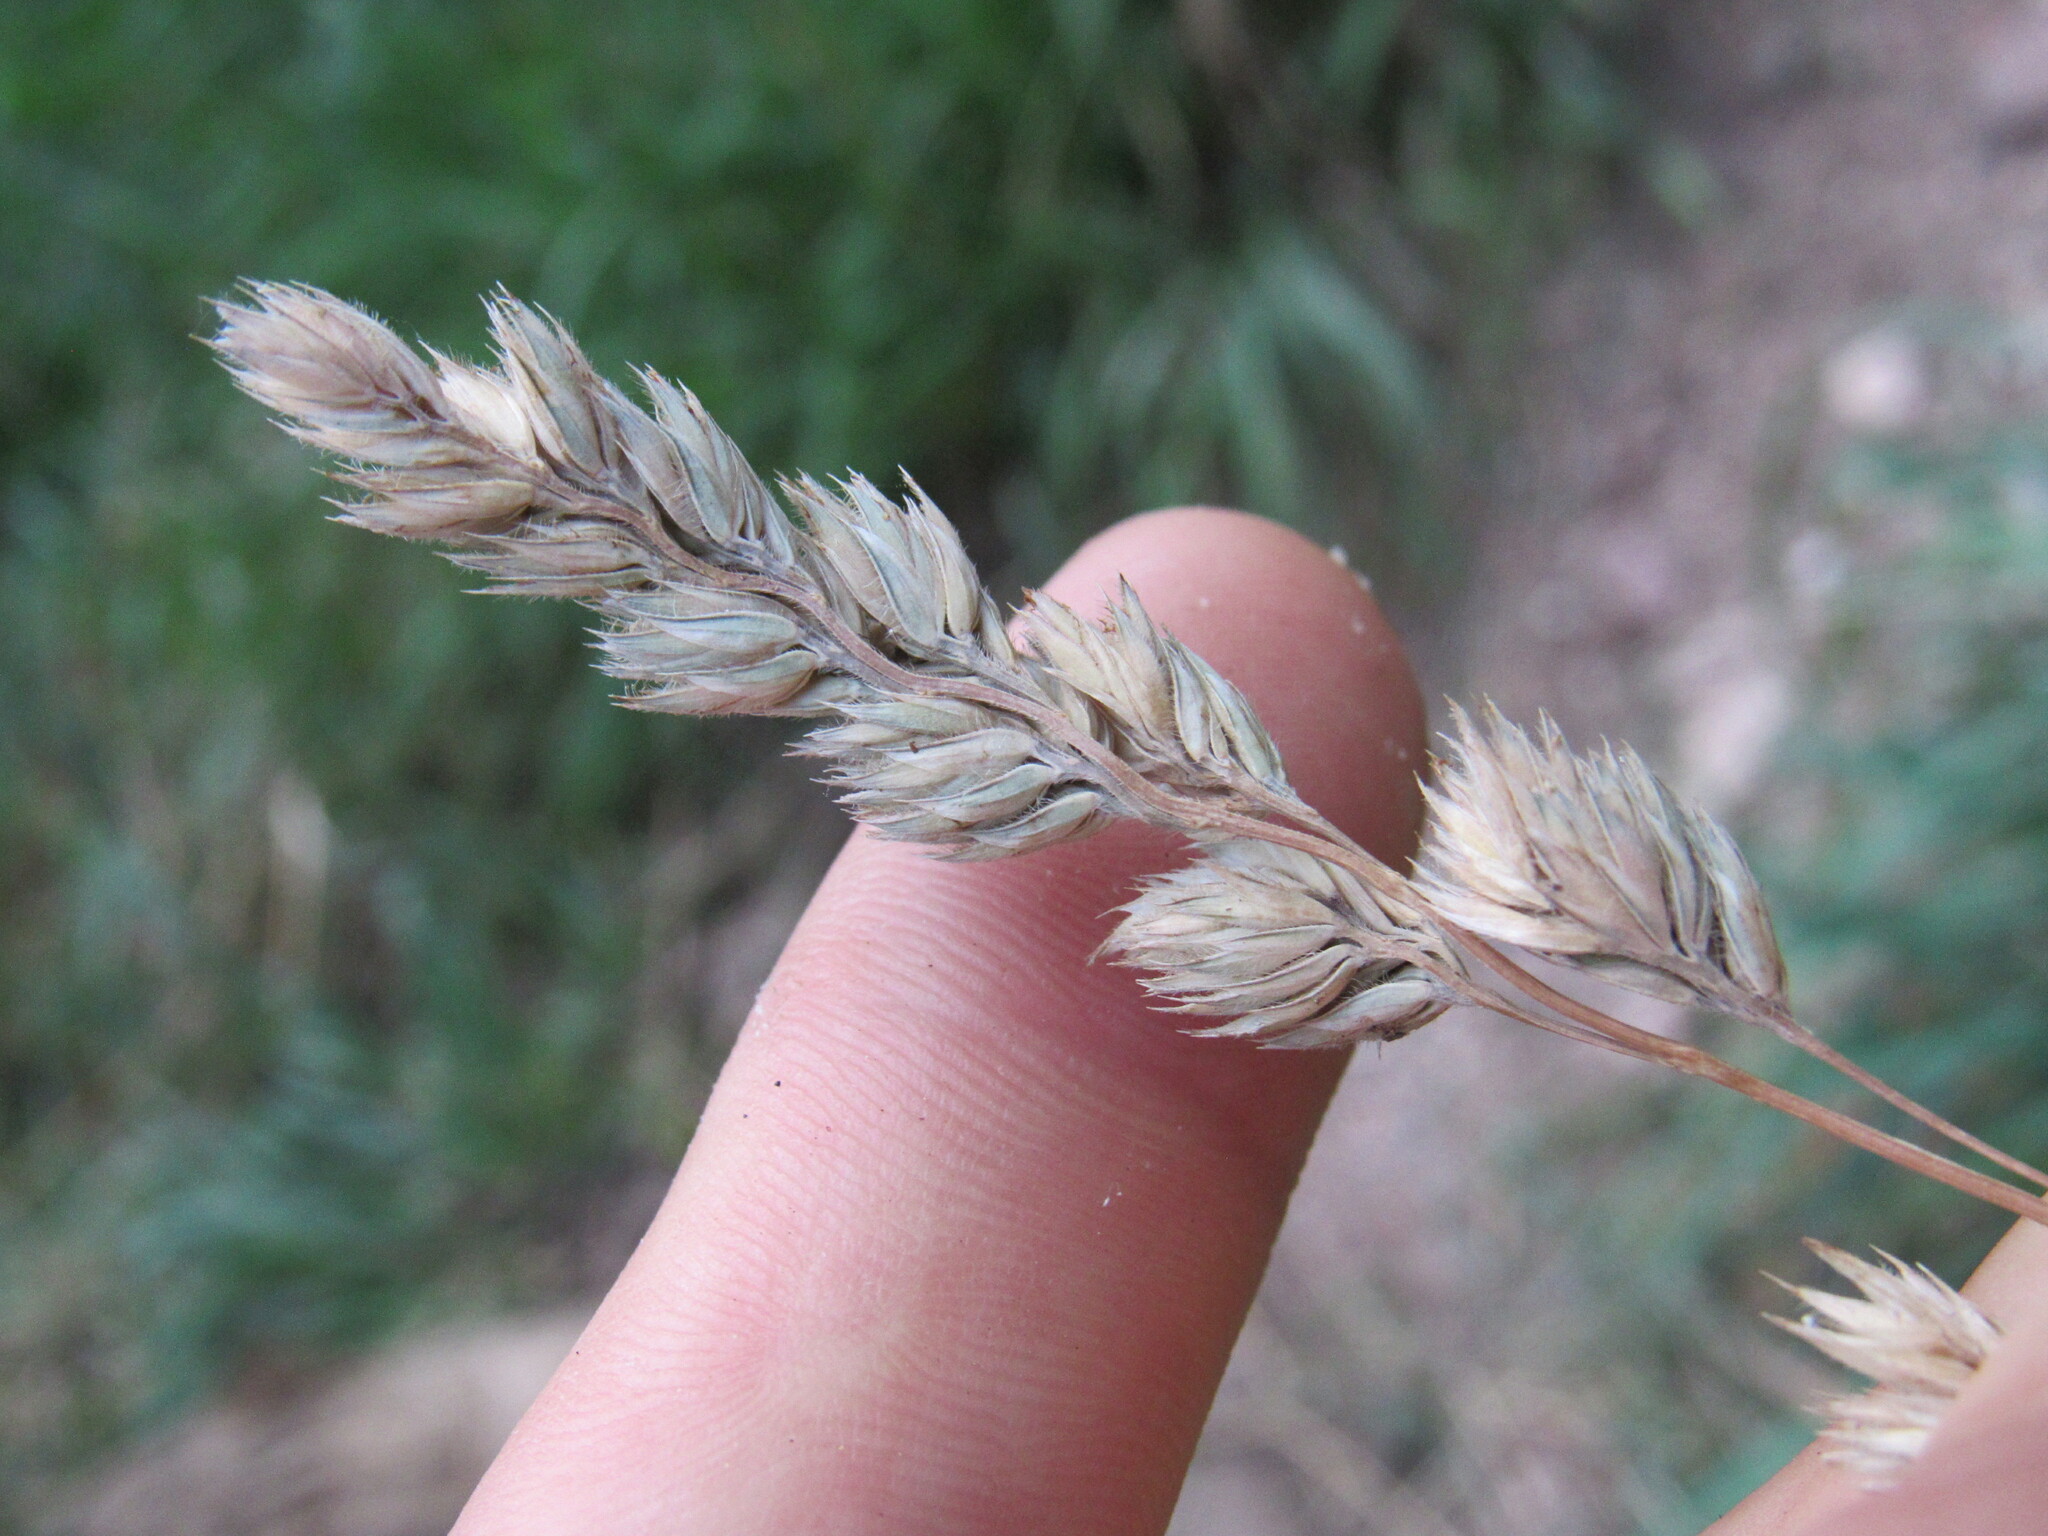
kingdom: Plantae
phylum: Tracheophyta
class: Liliopsida
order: Poales
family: Poaceae
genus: Dactylis
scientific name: Dactylis glomerata
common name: Orchardgrass
